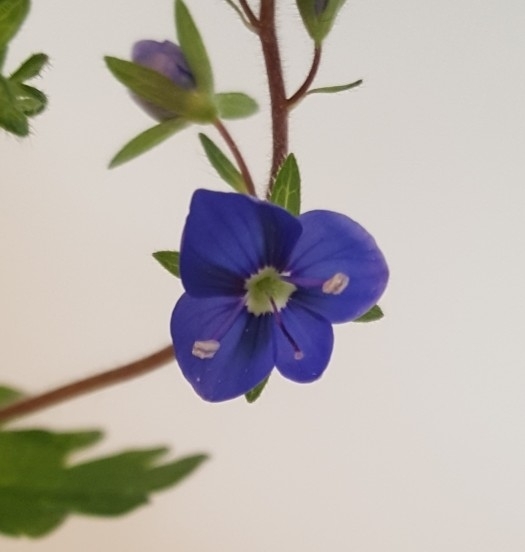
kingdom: Plantae
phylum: Tracheophyta
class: Magnoliopsida
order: Lamiales
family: Plantaginaceae
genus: Veronica
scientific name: Veronica chamaedrys
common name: Germander speedwell
